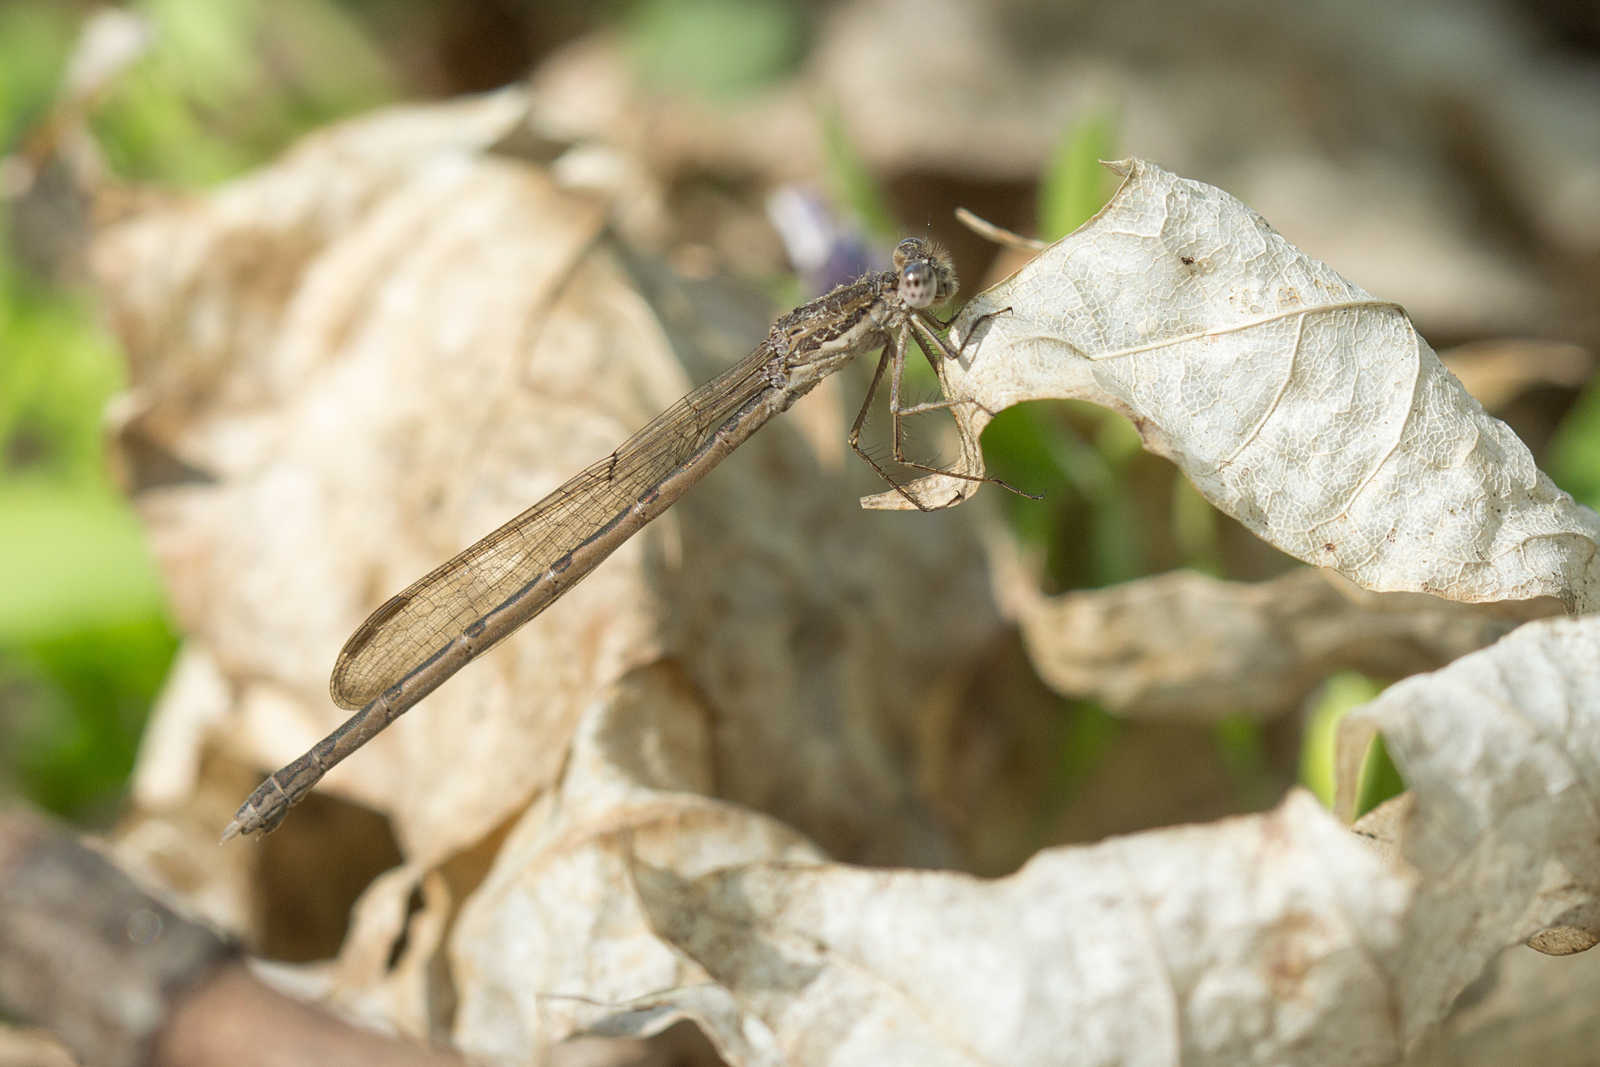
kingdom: Animalia
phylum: Arthropoda
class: Insecta
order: Odonata
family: Lestidae
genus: Sympecma
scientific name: Sympecma fusca
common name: Common winter damsel
